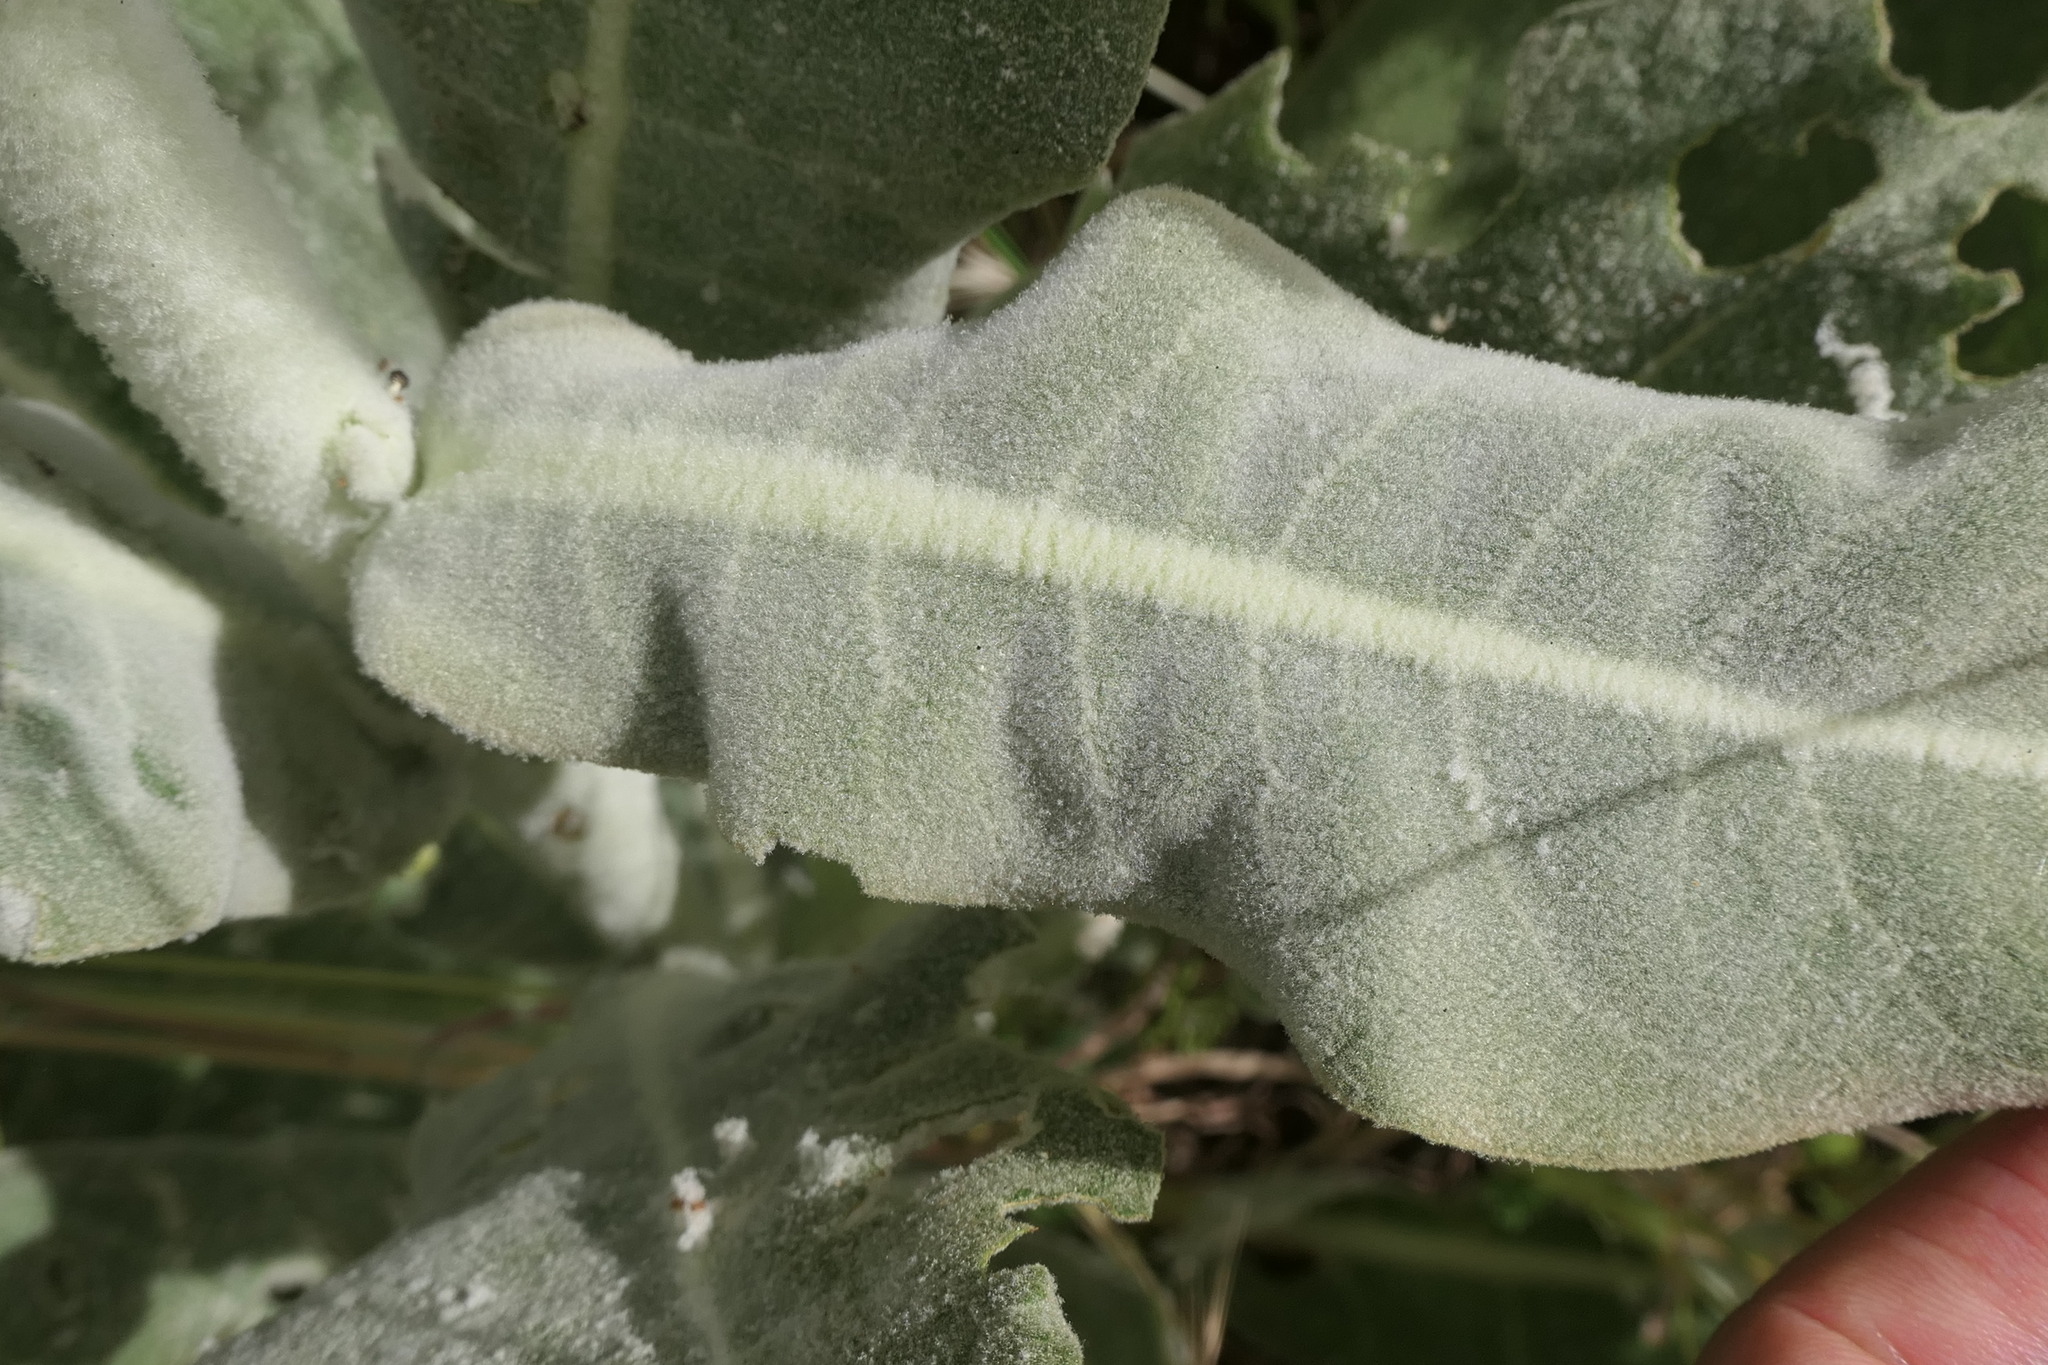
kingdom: Plantae
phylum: Tracheophyta
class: Magnoliopsida
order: Lamiales
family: Scrophulariaceae
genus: Verbascum
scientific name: Verbascum pulverulentum
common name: Broad-leaf mullein
